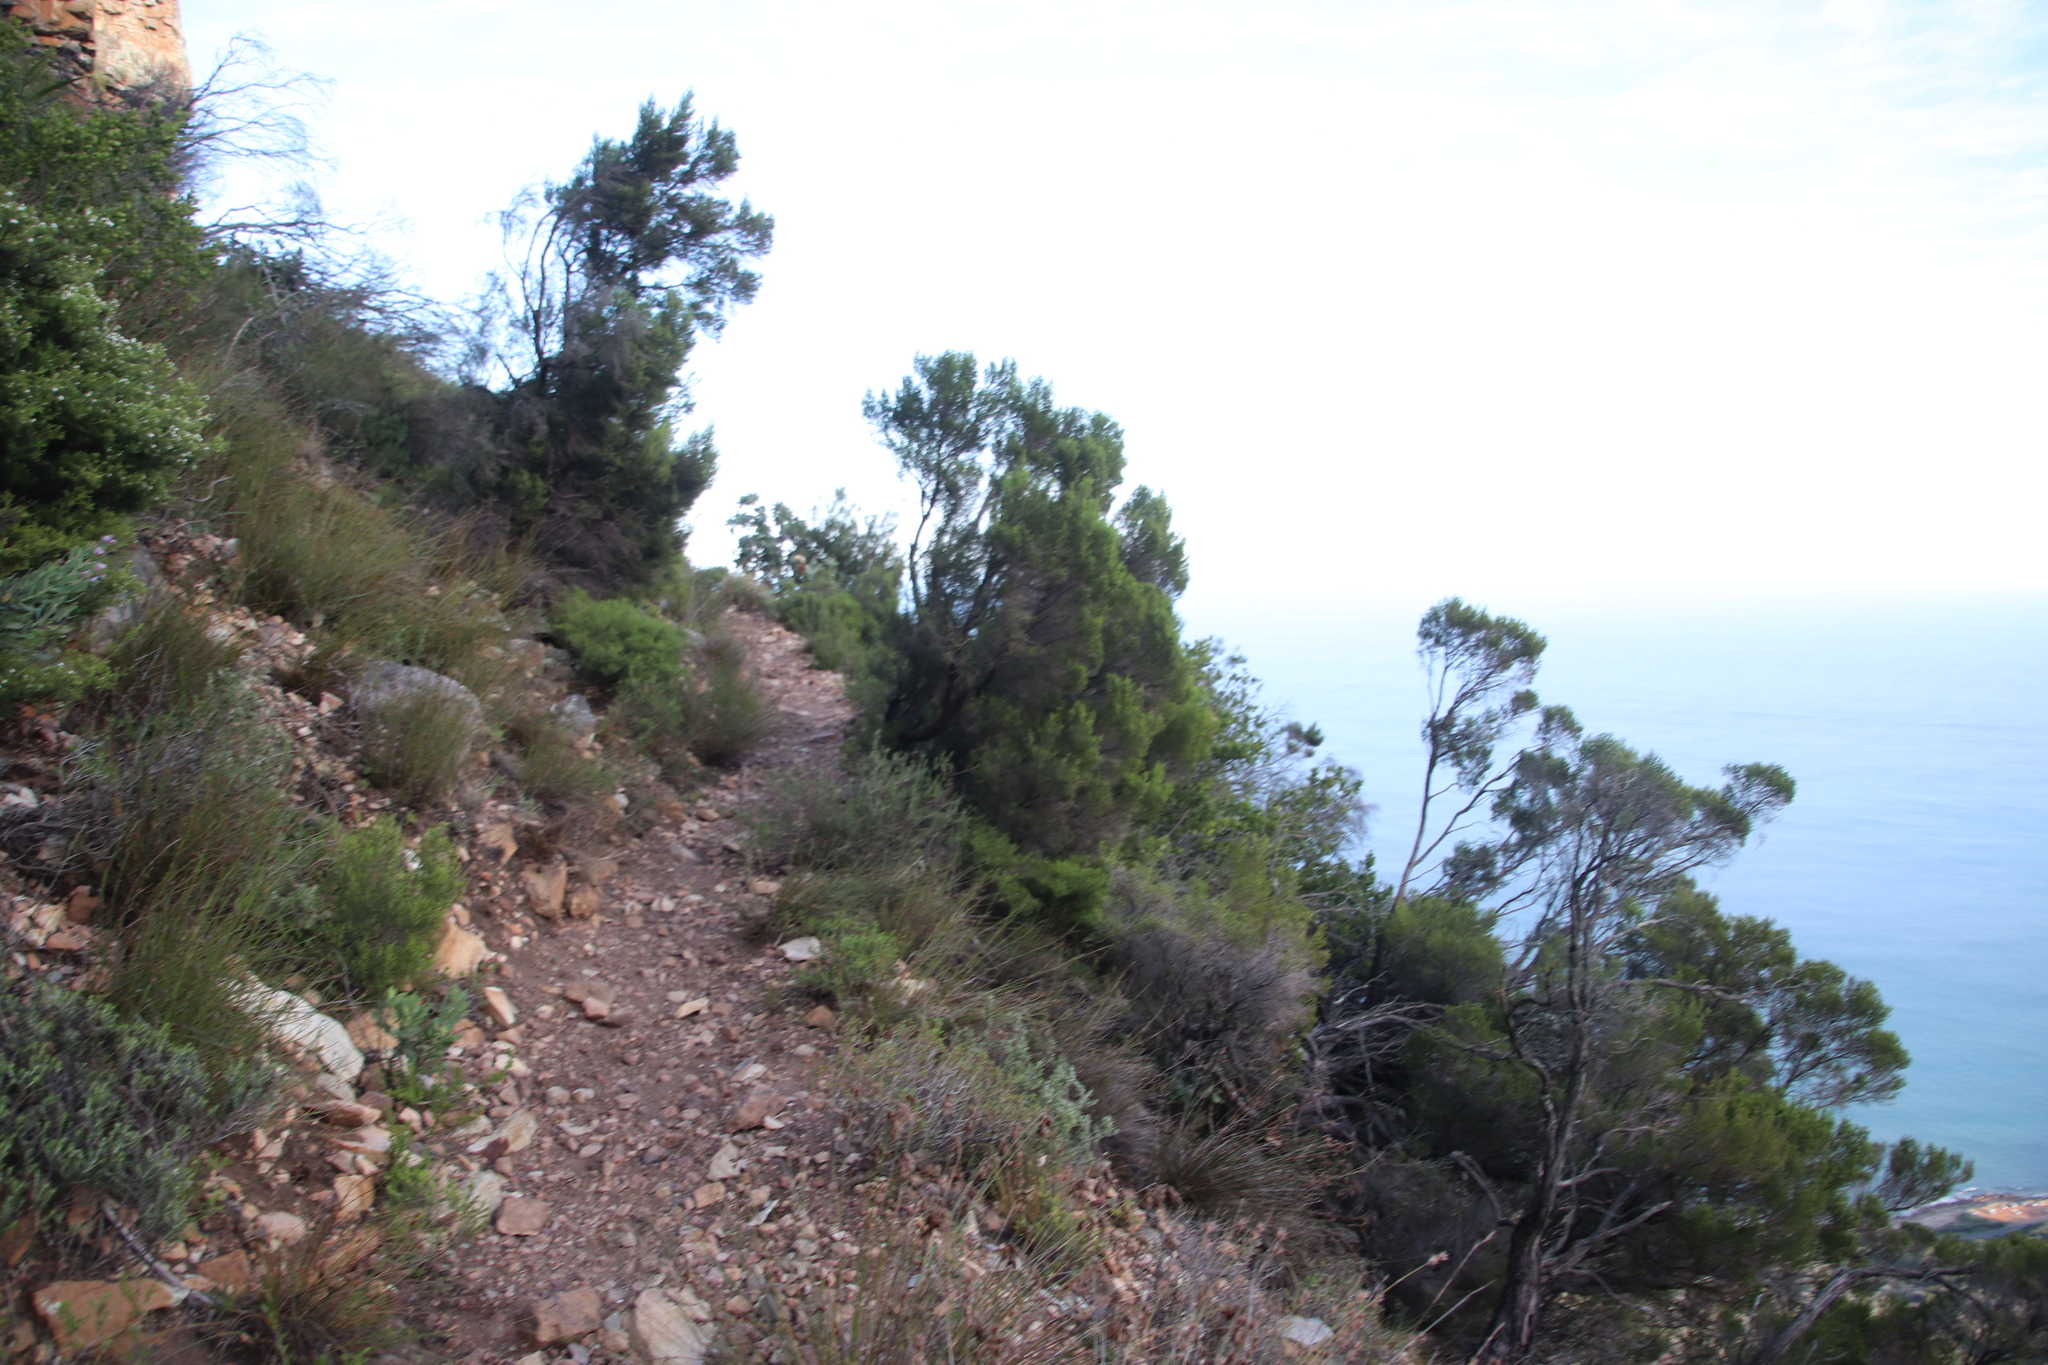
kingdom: Plantae
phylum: Tracheophyta
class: Magnoliopsida
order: Ericales
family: Ericaceae
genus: Erica
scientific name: Erica tristis
